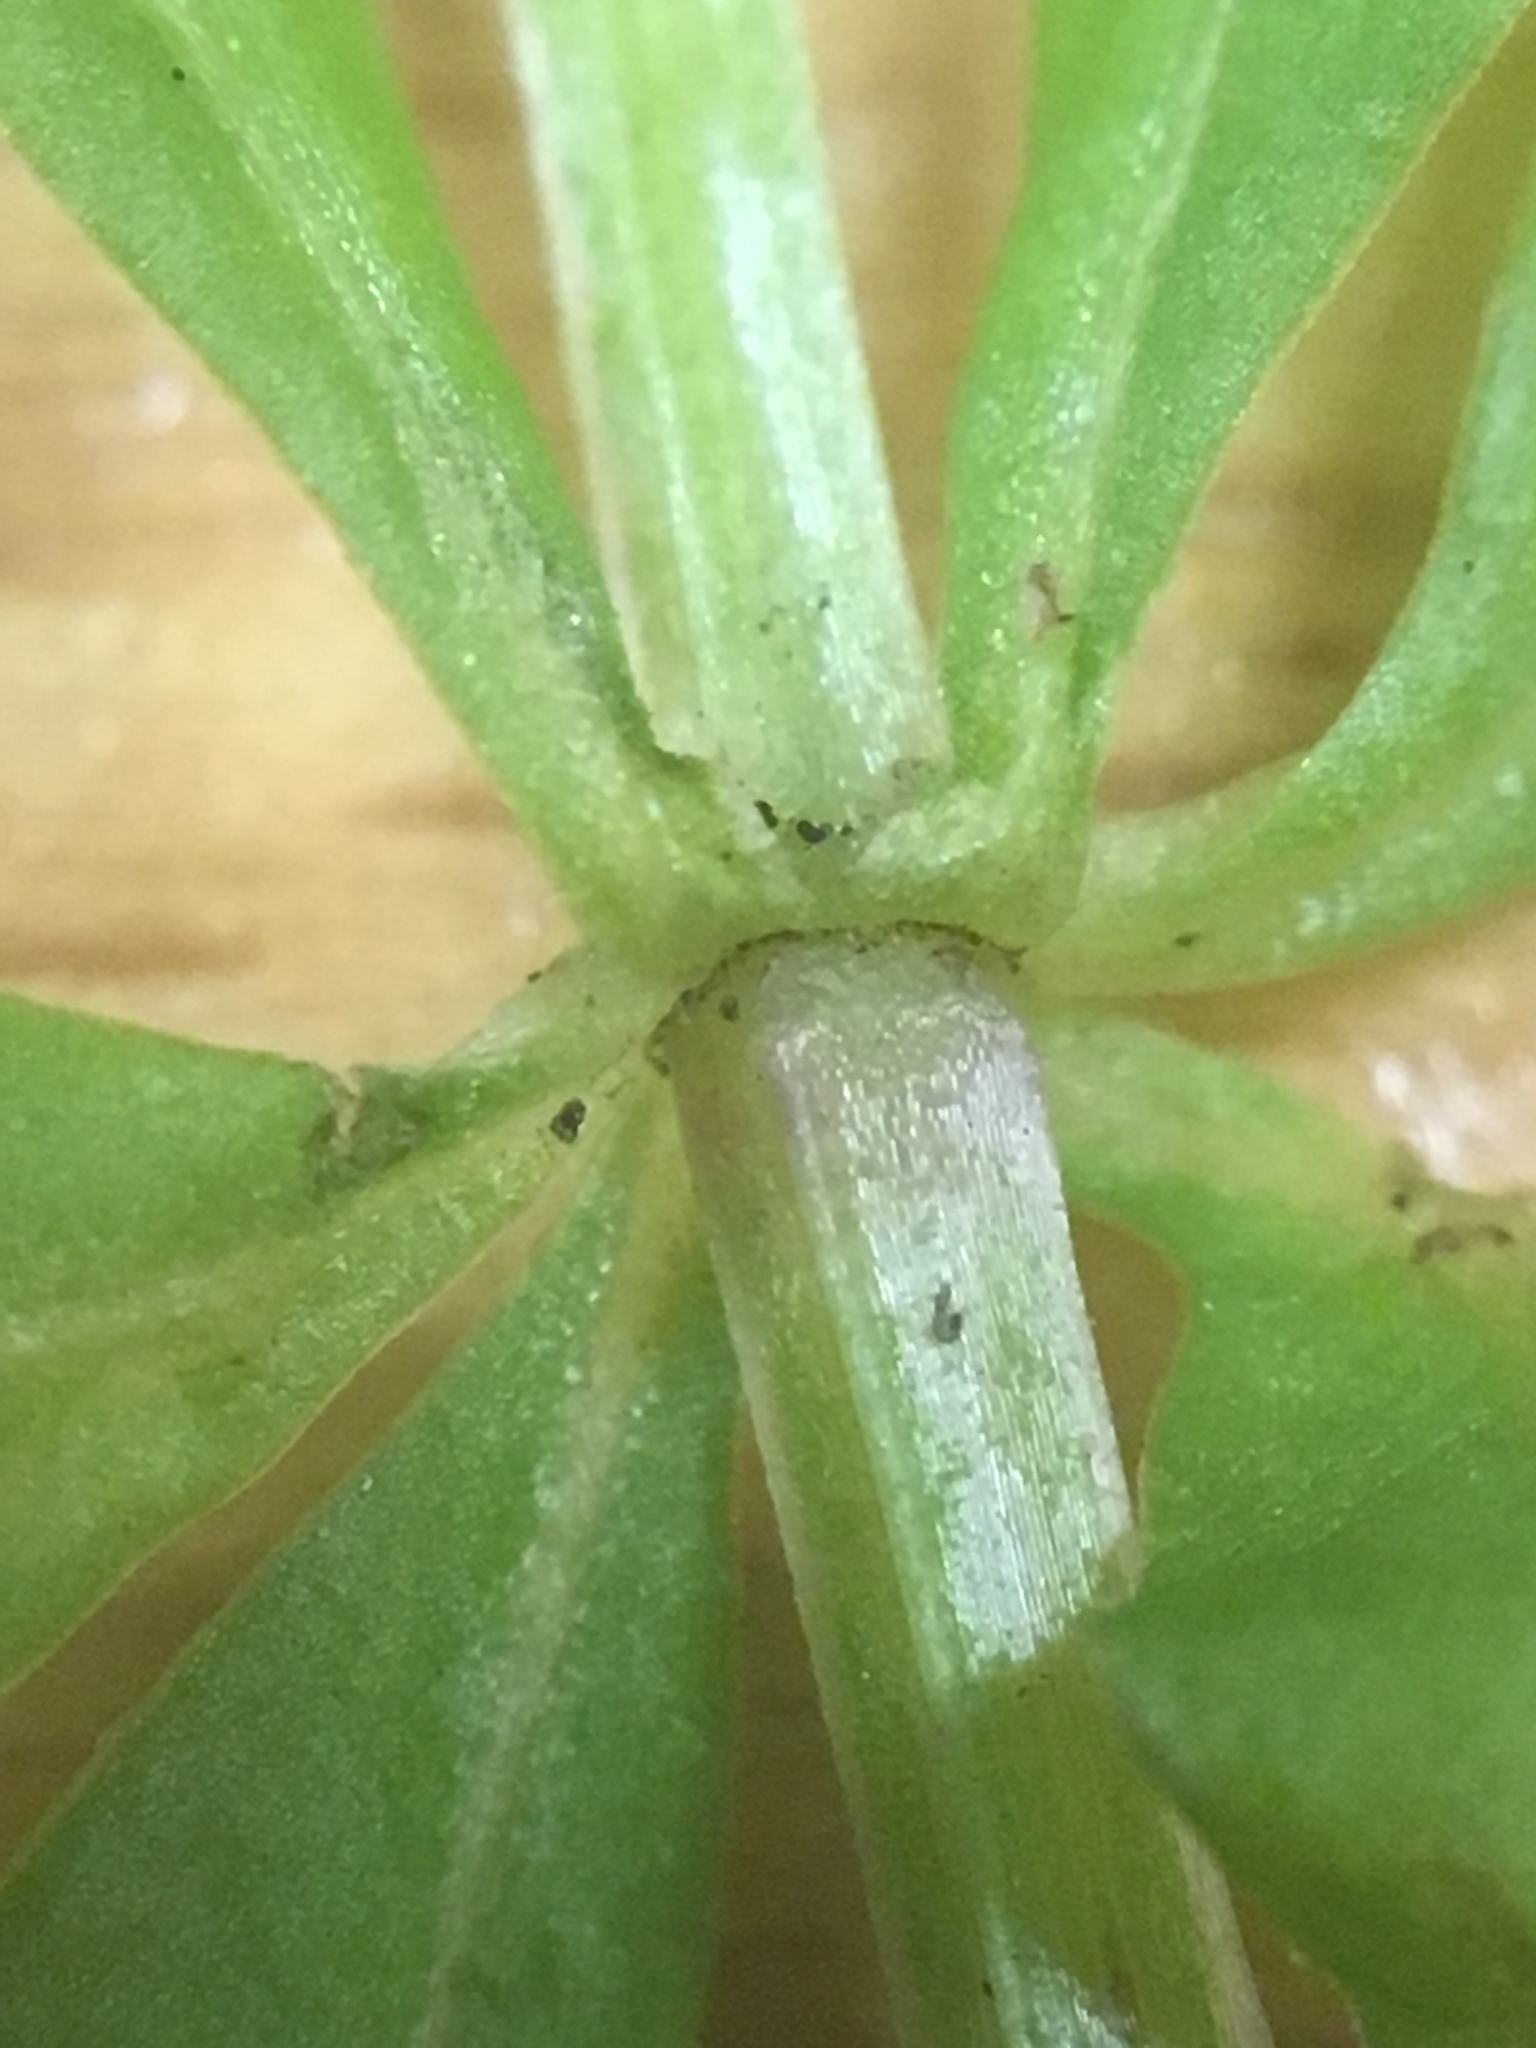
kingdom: Plantae
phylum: Tracheophyta
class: Magnoliopsida
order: Gentianales
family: Rubiaceae
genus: Galium
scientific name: Galium triflorum
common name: Fragrant bedstraw
